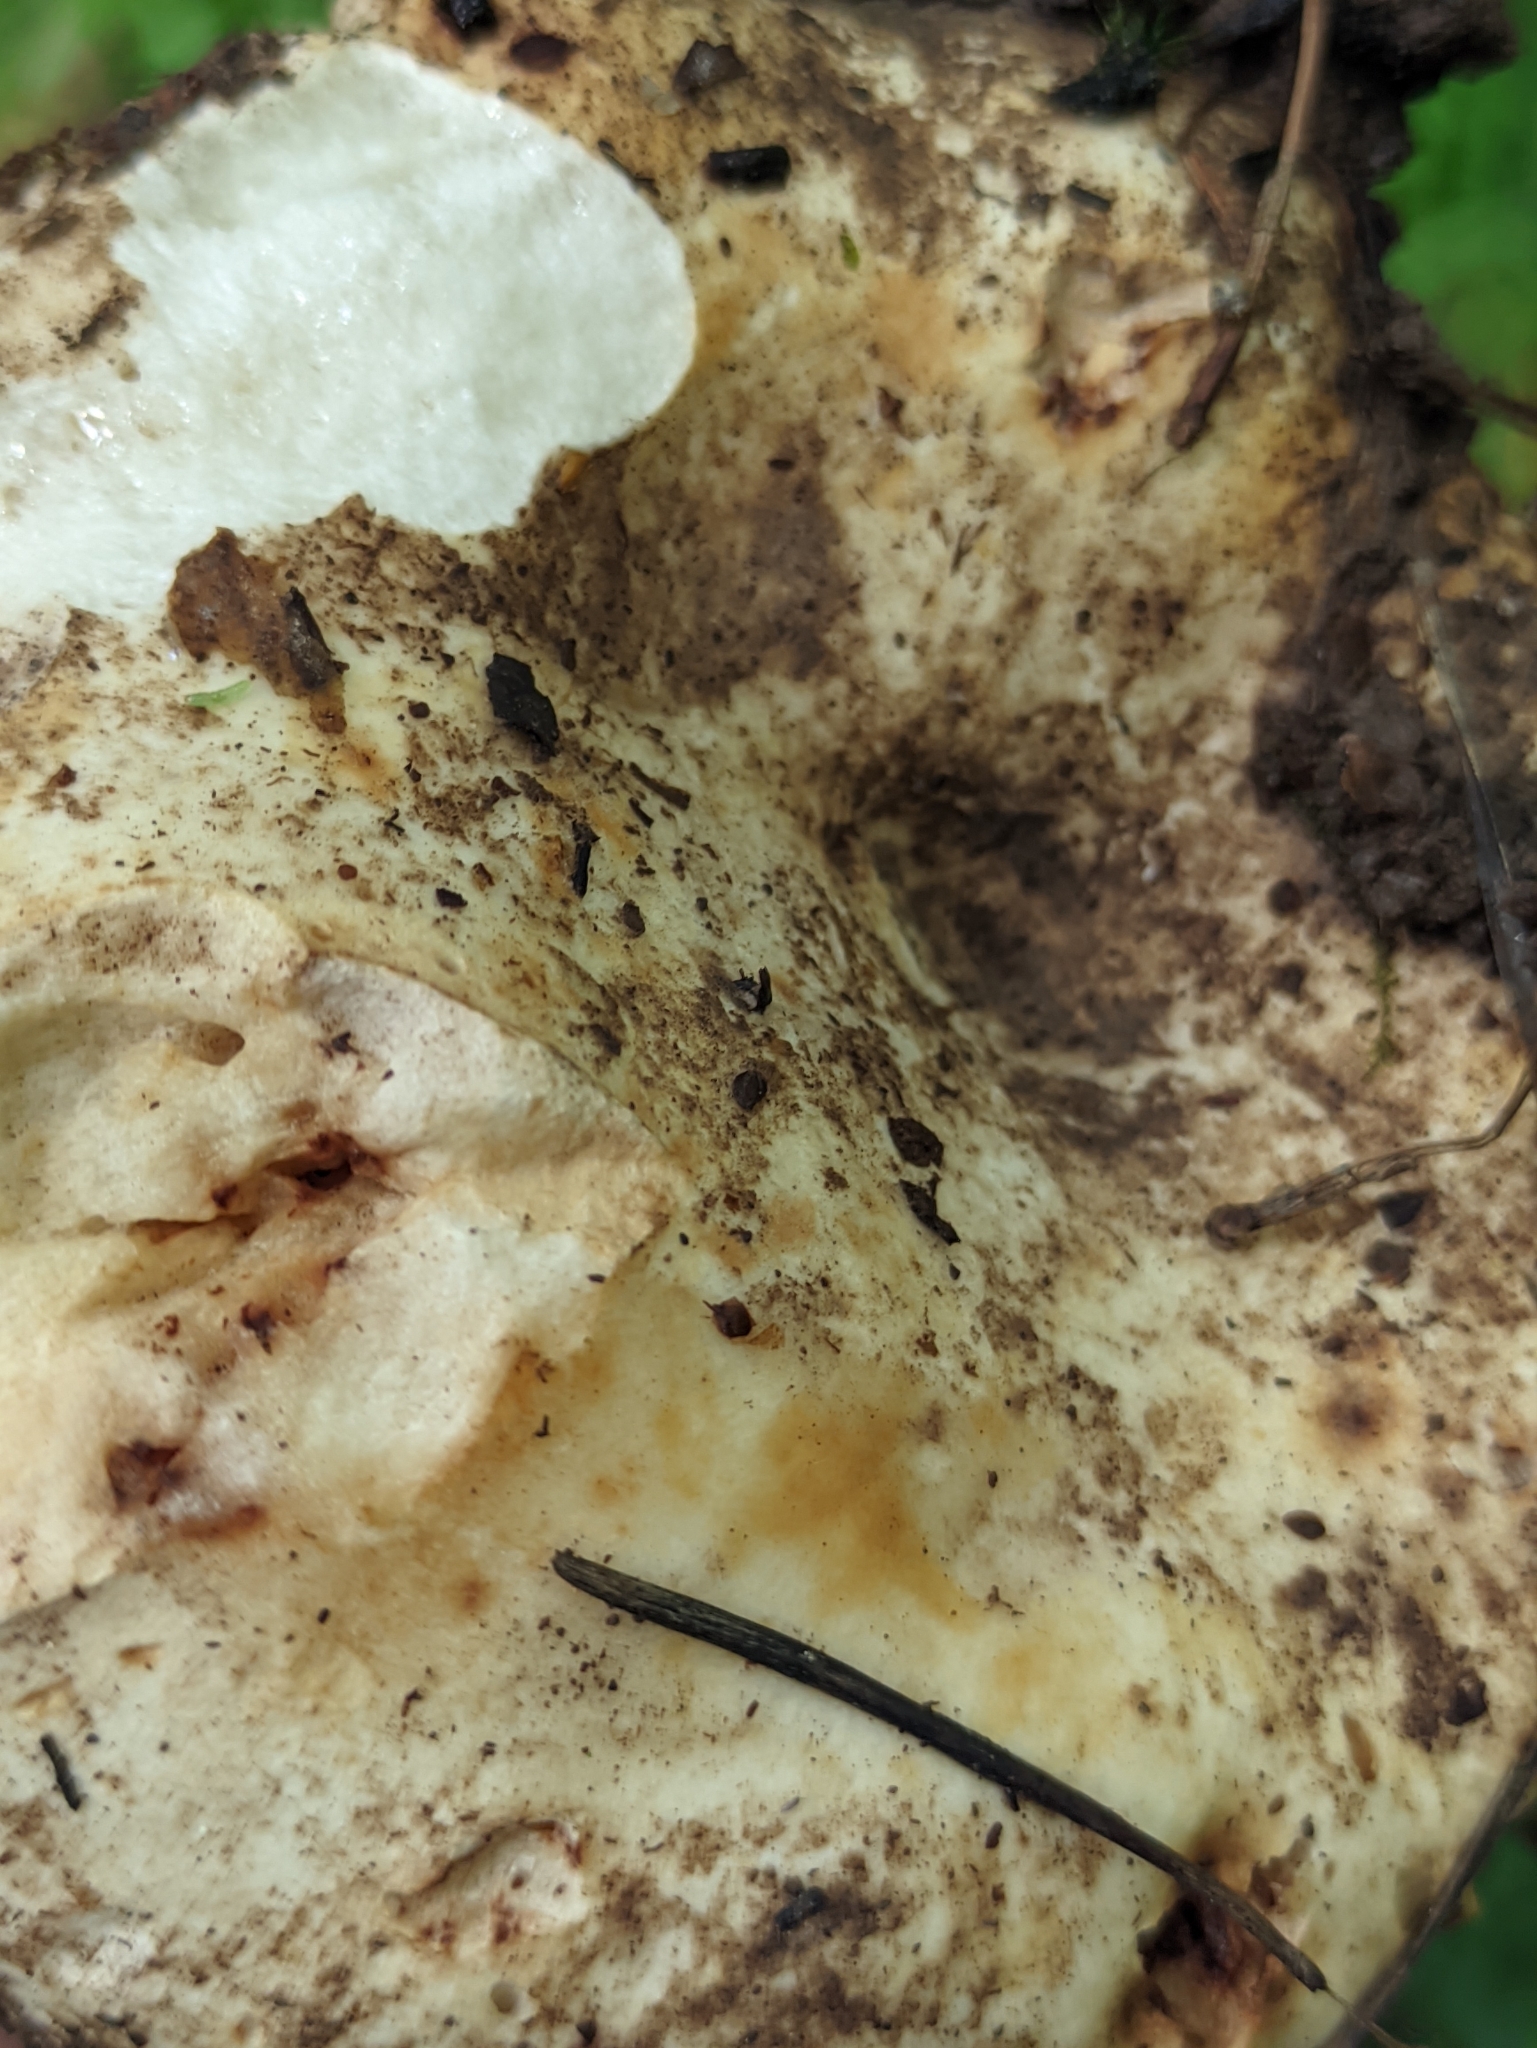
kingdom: Fungi
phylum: Basidiomycota
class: Agaricomycetes
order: Russulales
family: Russulaceae
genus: Russula
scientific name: Russula delica
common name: Milk white brittlegill
